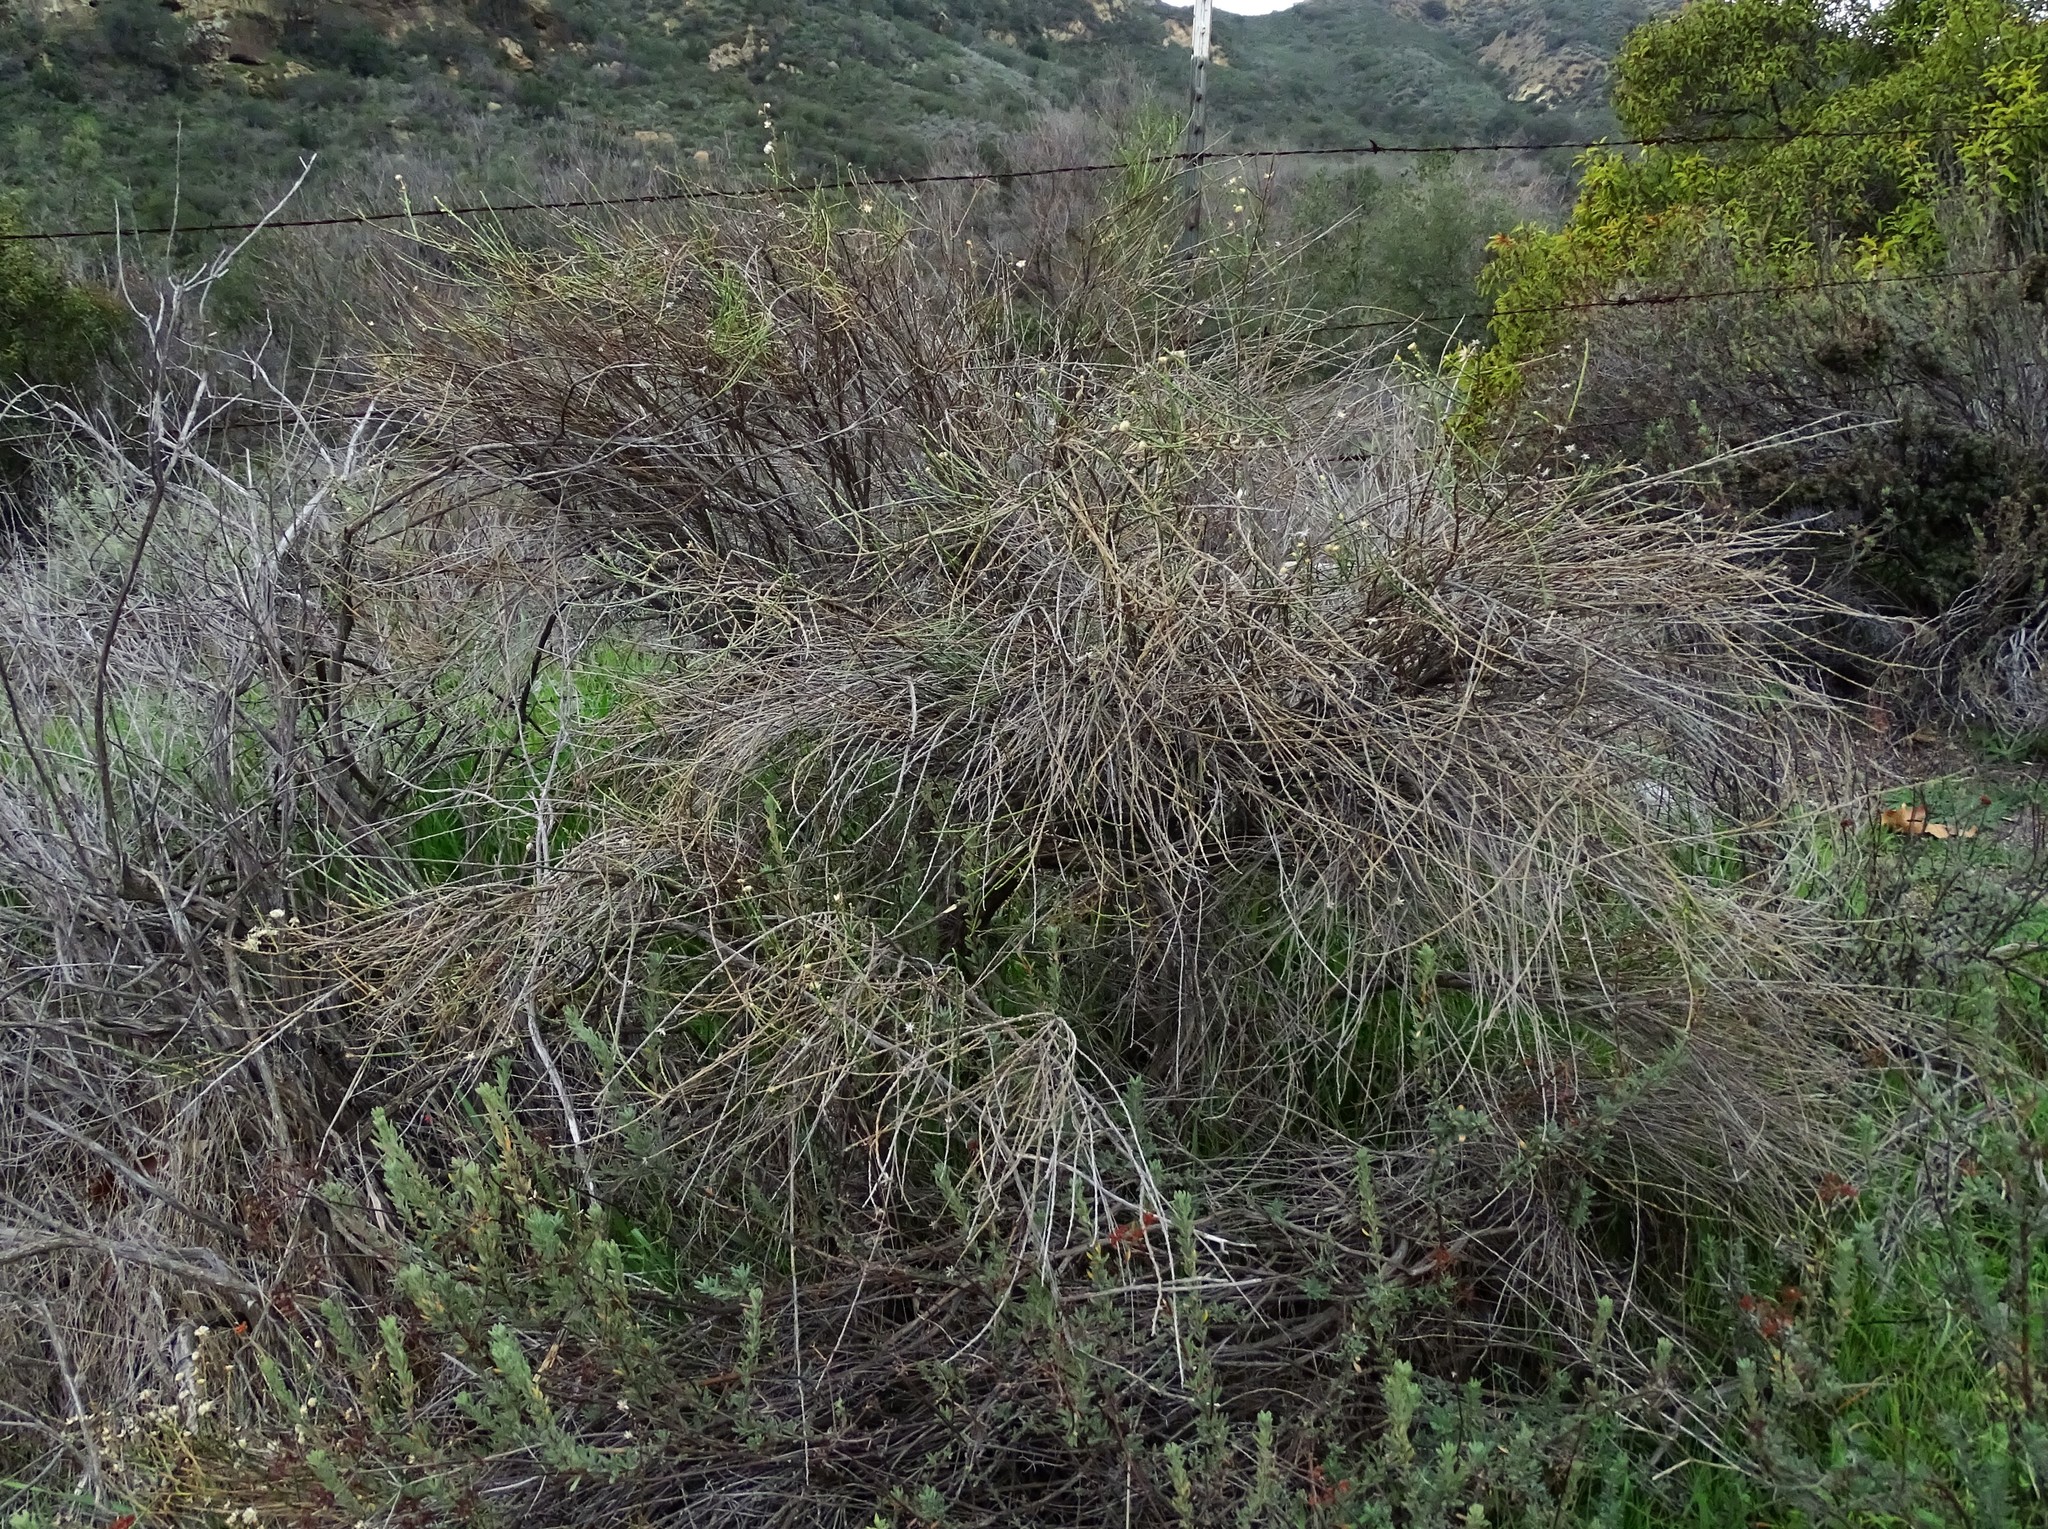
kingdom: Plantae
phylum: Tracheophyta
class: Magnoliopsida
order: Asterales
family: Asteraceae
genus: Lepidospartum
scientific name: Lepidospartum squamatum
